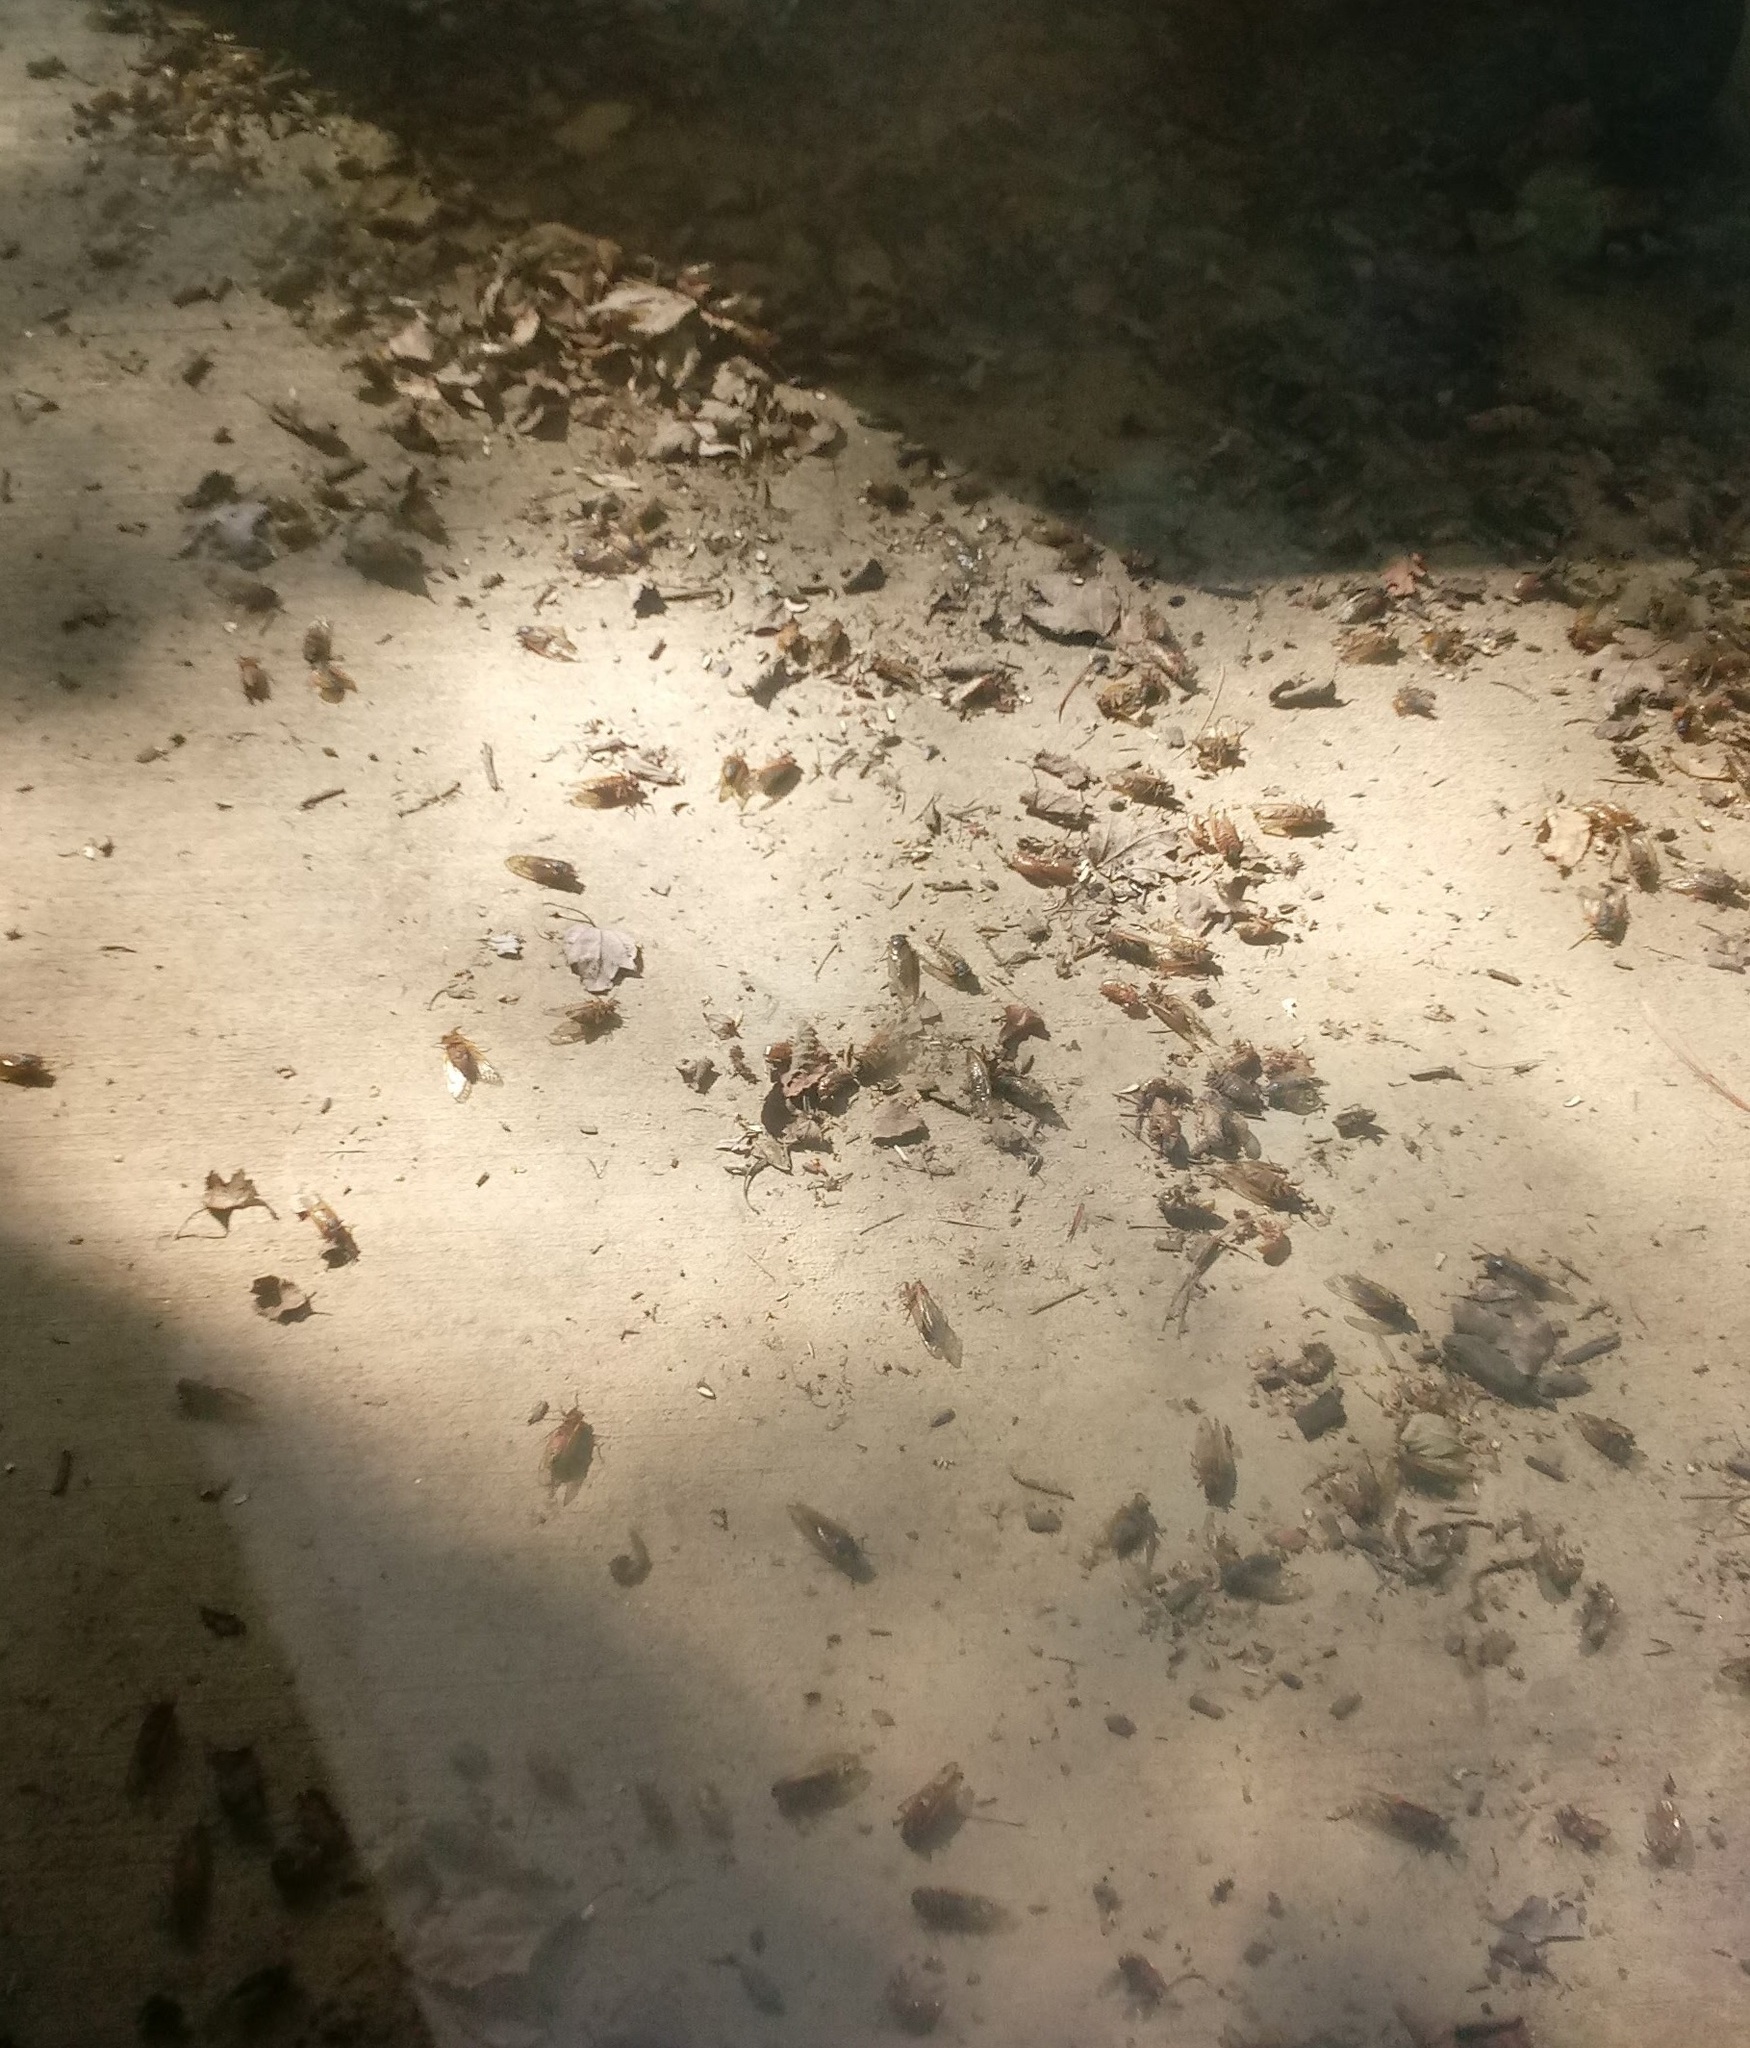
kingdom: Animalia
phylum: Arthropoda
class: Insecta
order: Hemiptera
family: Cicadidae
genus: Magicicada
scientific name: Magicicada septendecim
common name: Periodical cicada
